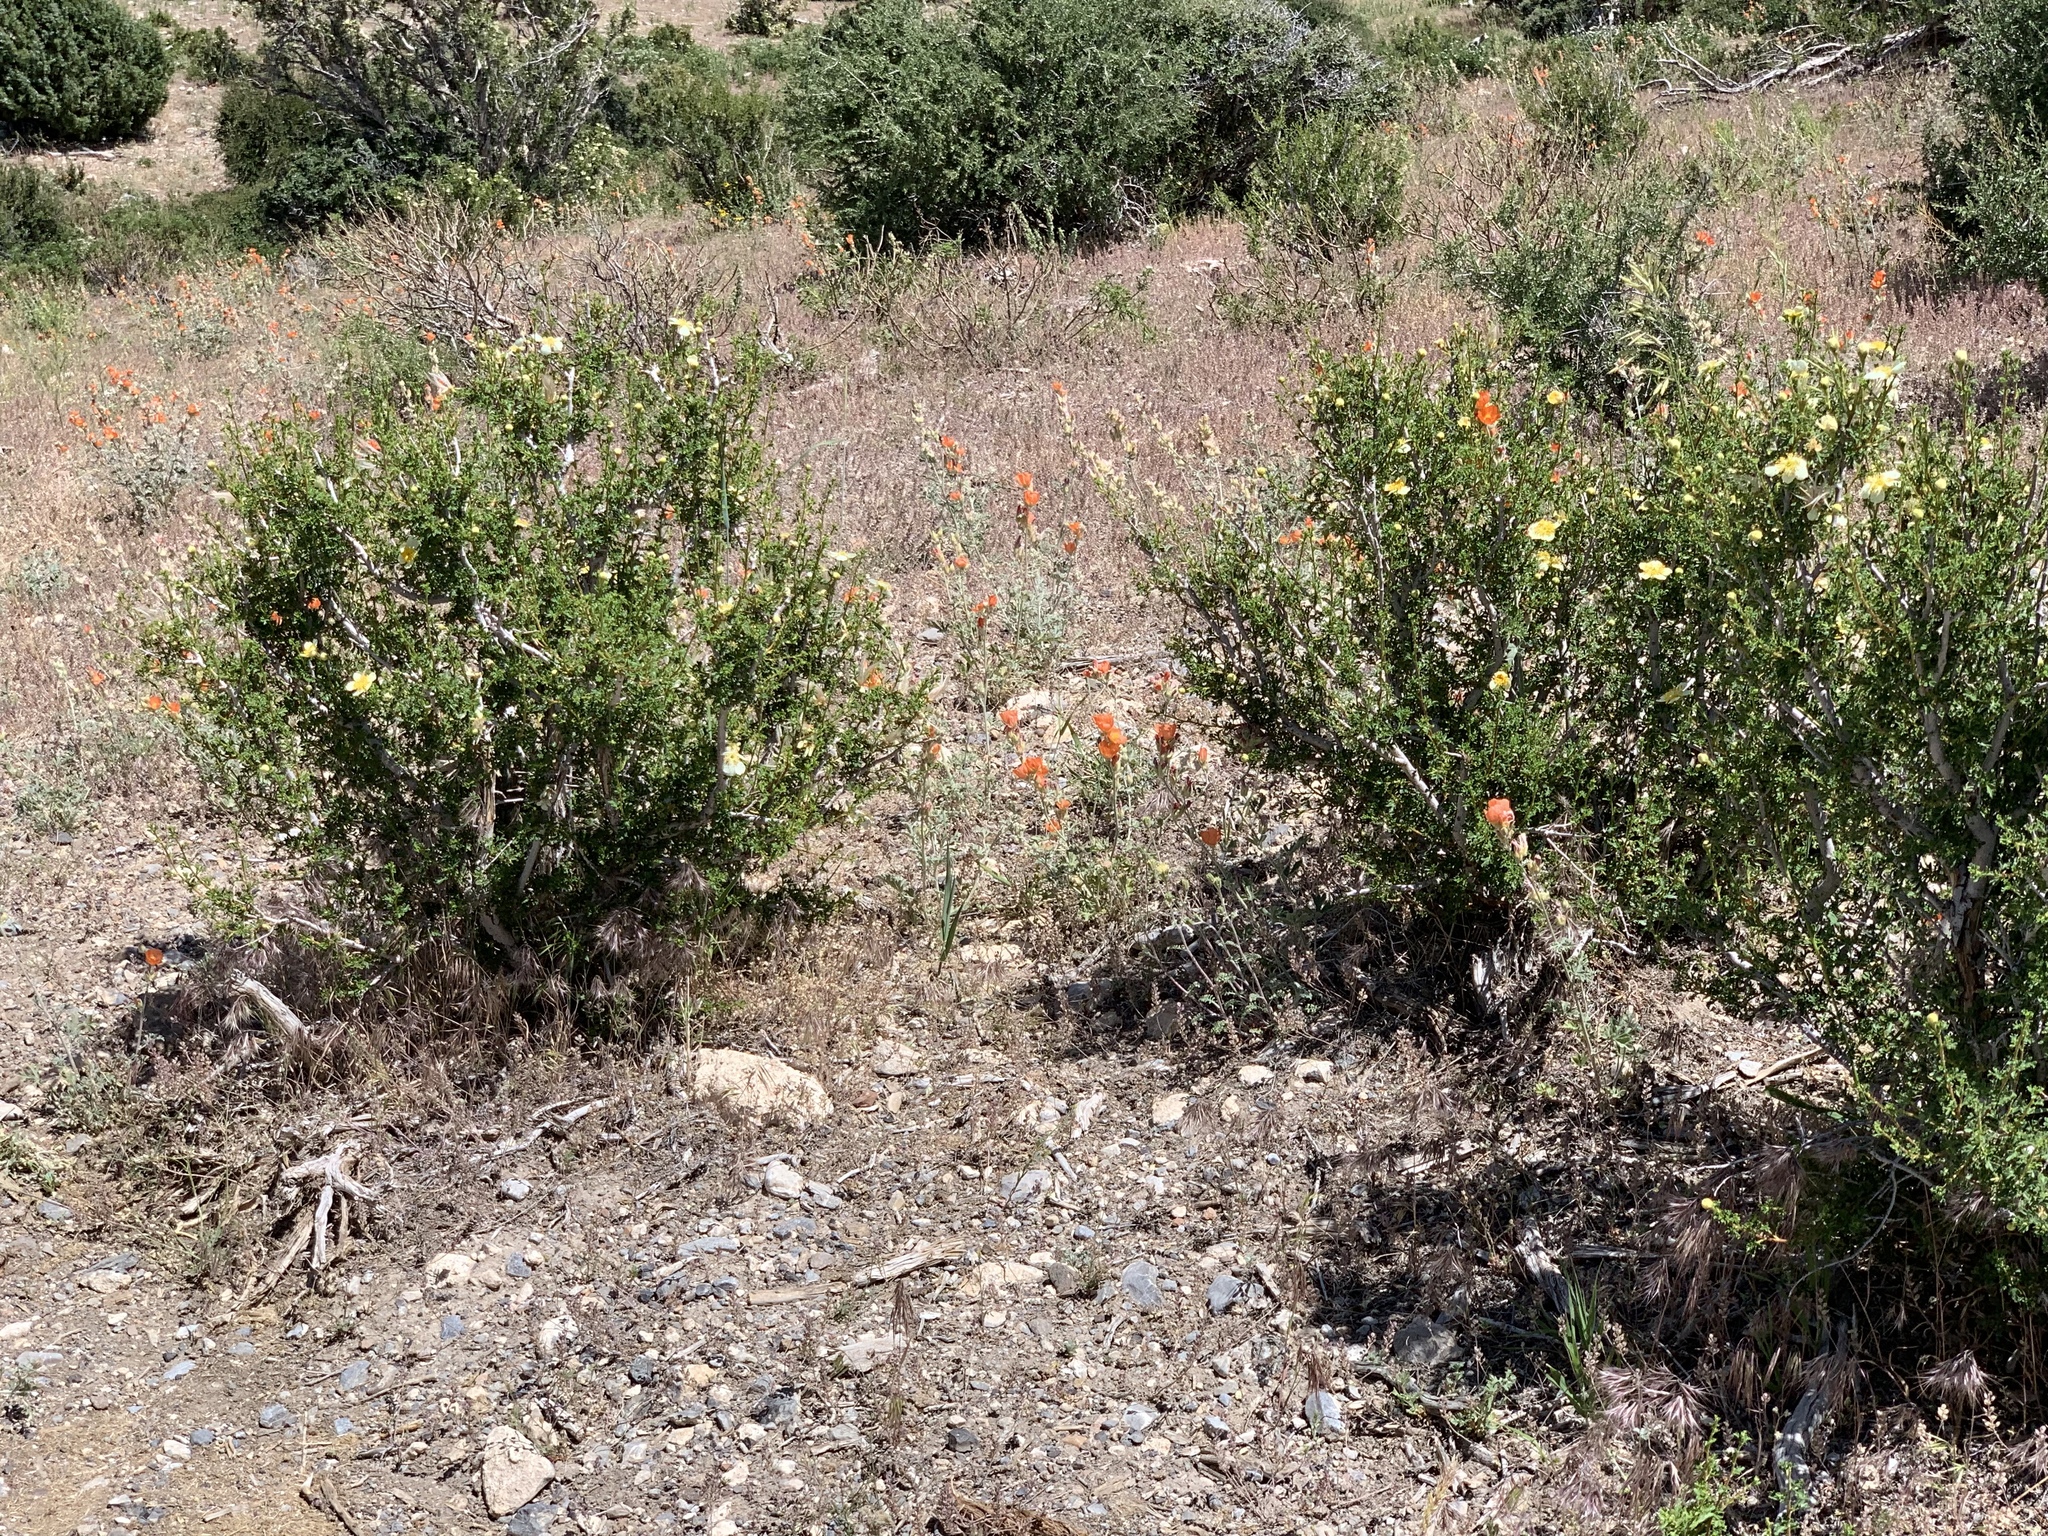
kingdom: Plantae
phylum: Tracheophyta
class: Magnoliopsida
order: Rosales
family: Rosaceae
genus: Purshia
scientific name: Purshia stansburiana
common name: Stansbury's cliffrose
